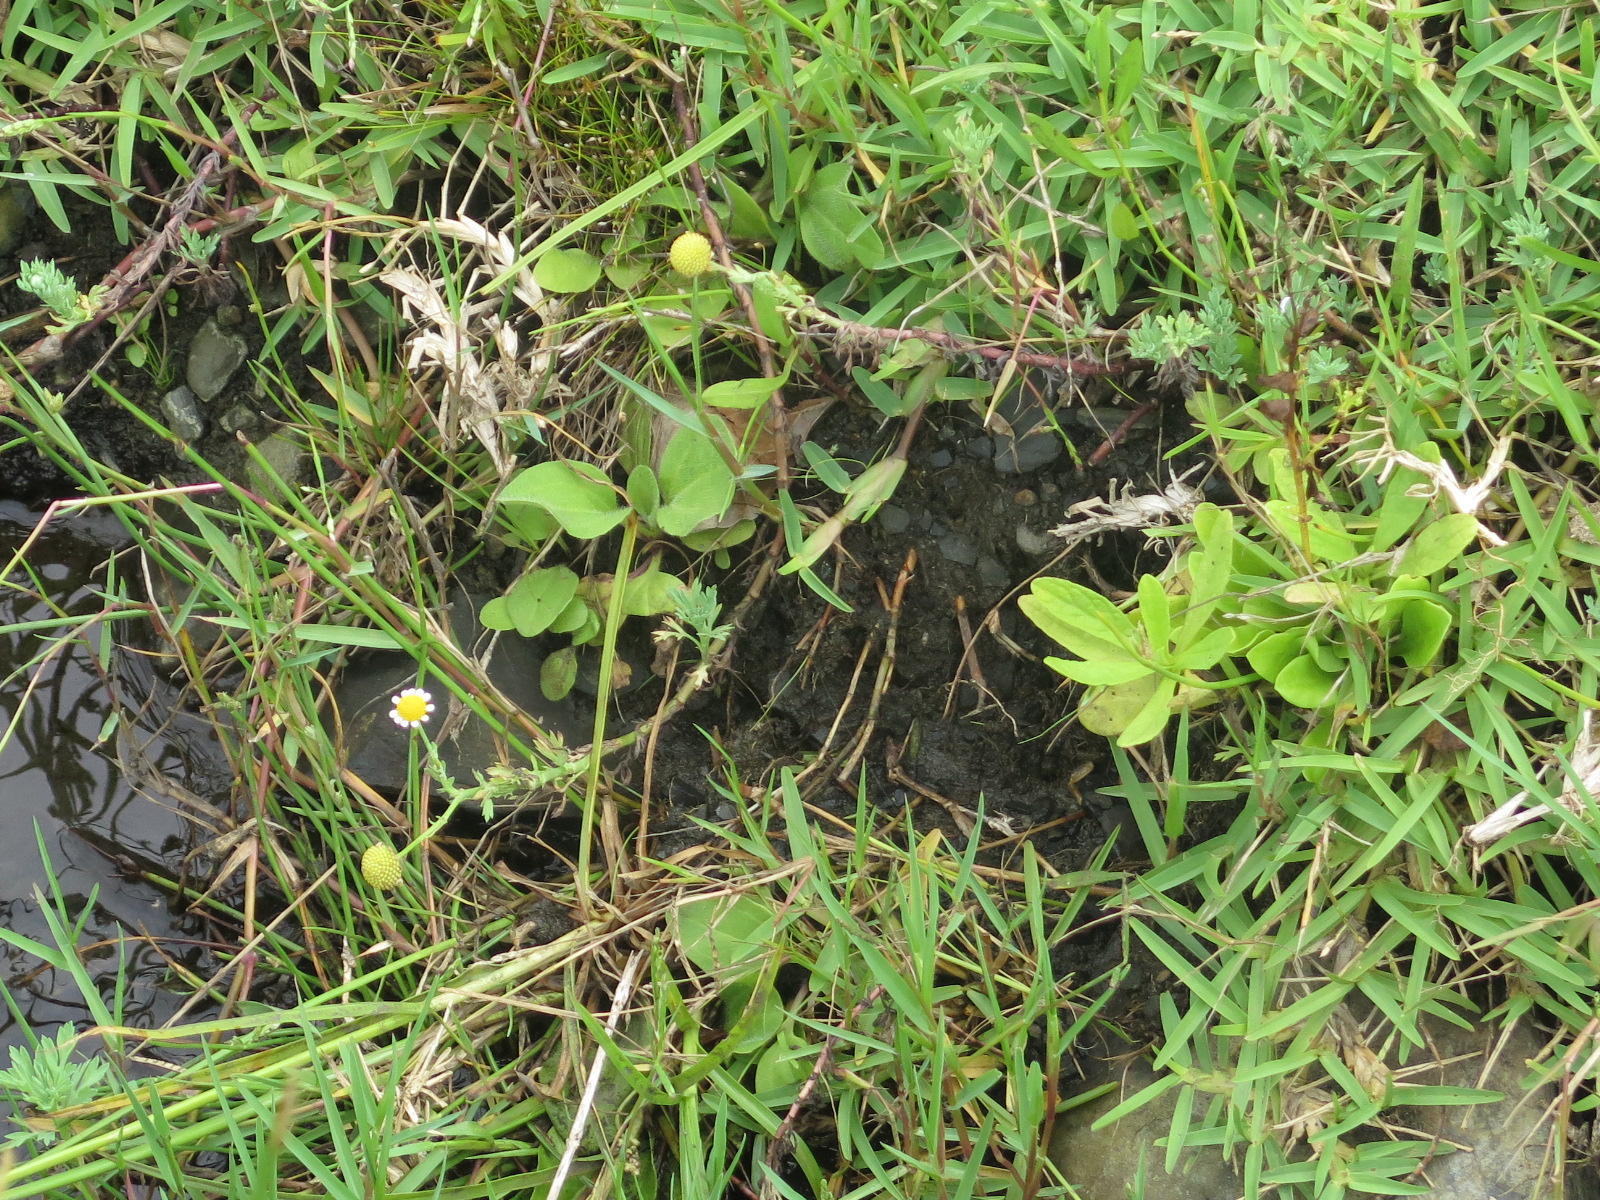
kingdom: Plantae
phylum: Tracheophyta
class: Magnoliopsida
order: Asterales
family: Asteraceae
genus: Cotula
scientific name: Cotula nigellifolia
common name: Staggerweed
